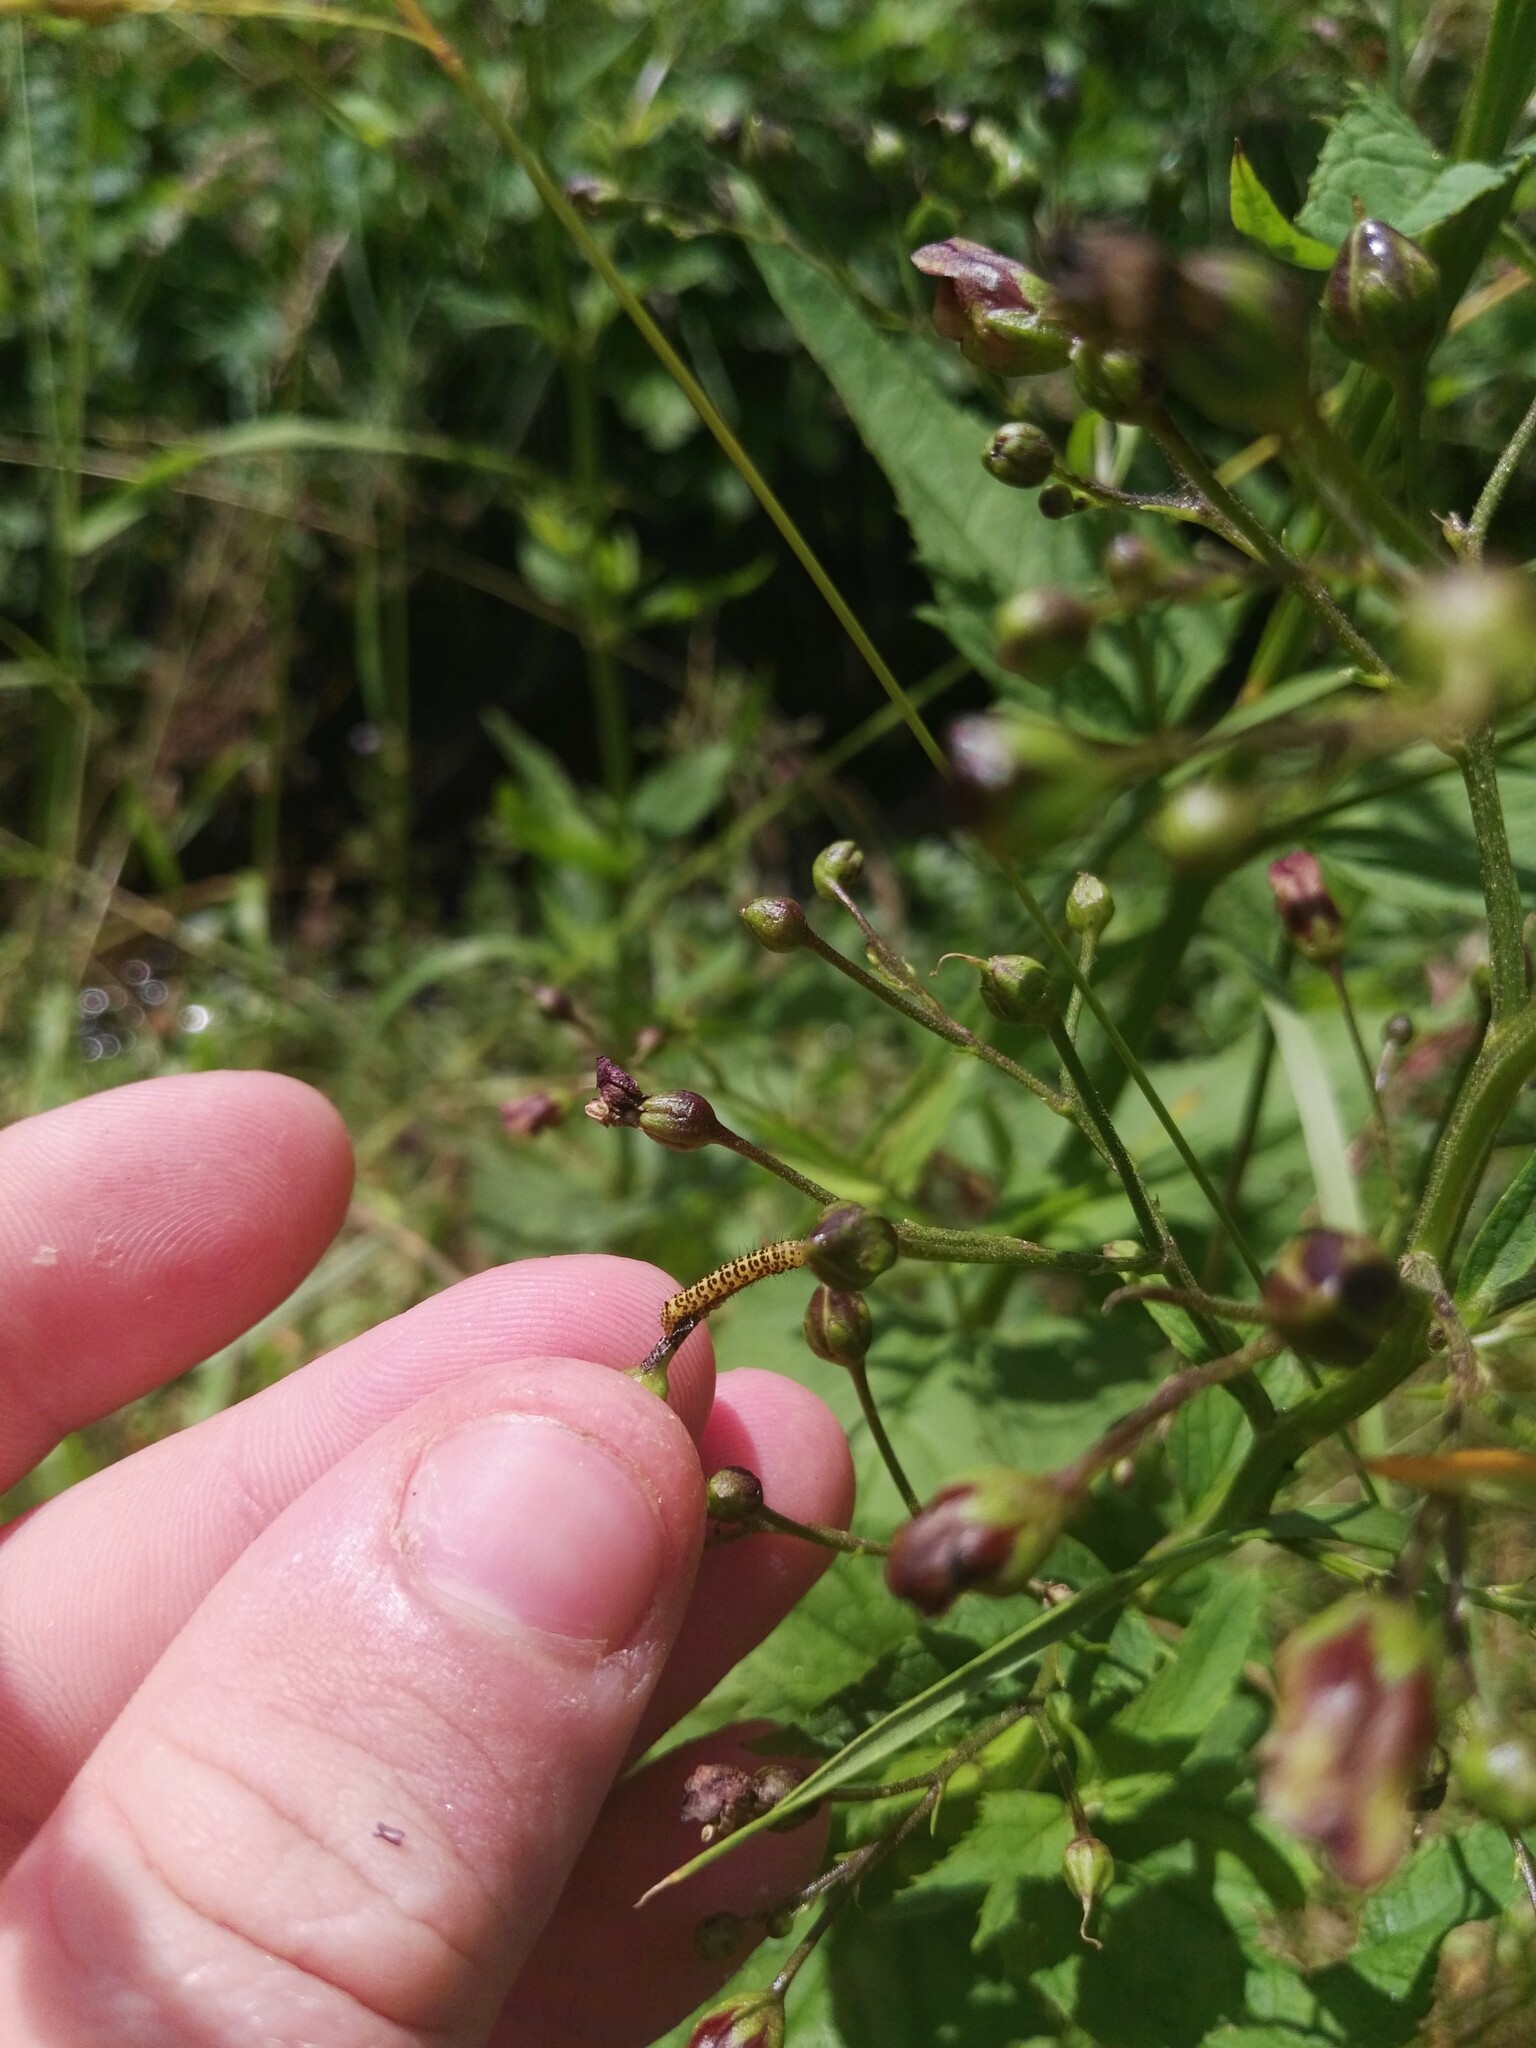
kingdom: Animalia
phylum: Arthropoda
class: Insecta
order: Lepidoptera
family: Noctuidae
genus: Shargacucullia
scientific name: Shargacucullia scrophulariae
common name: Water betony
